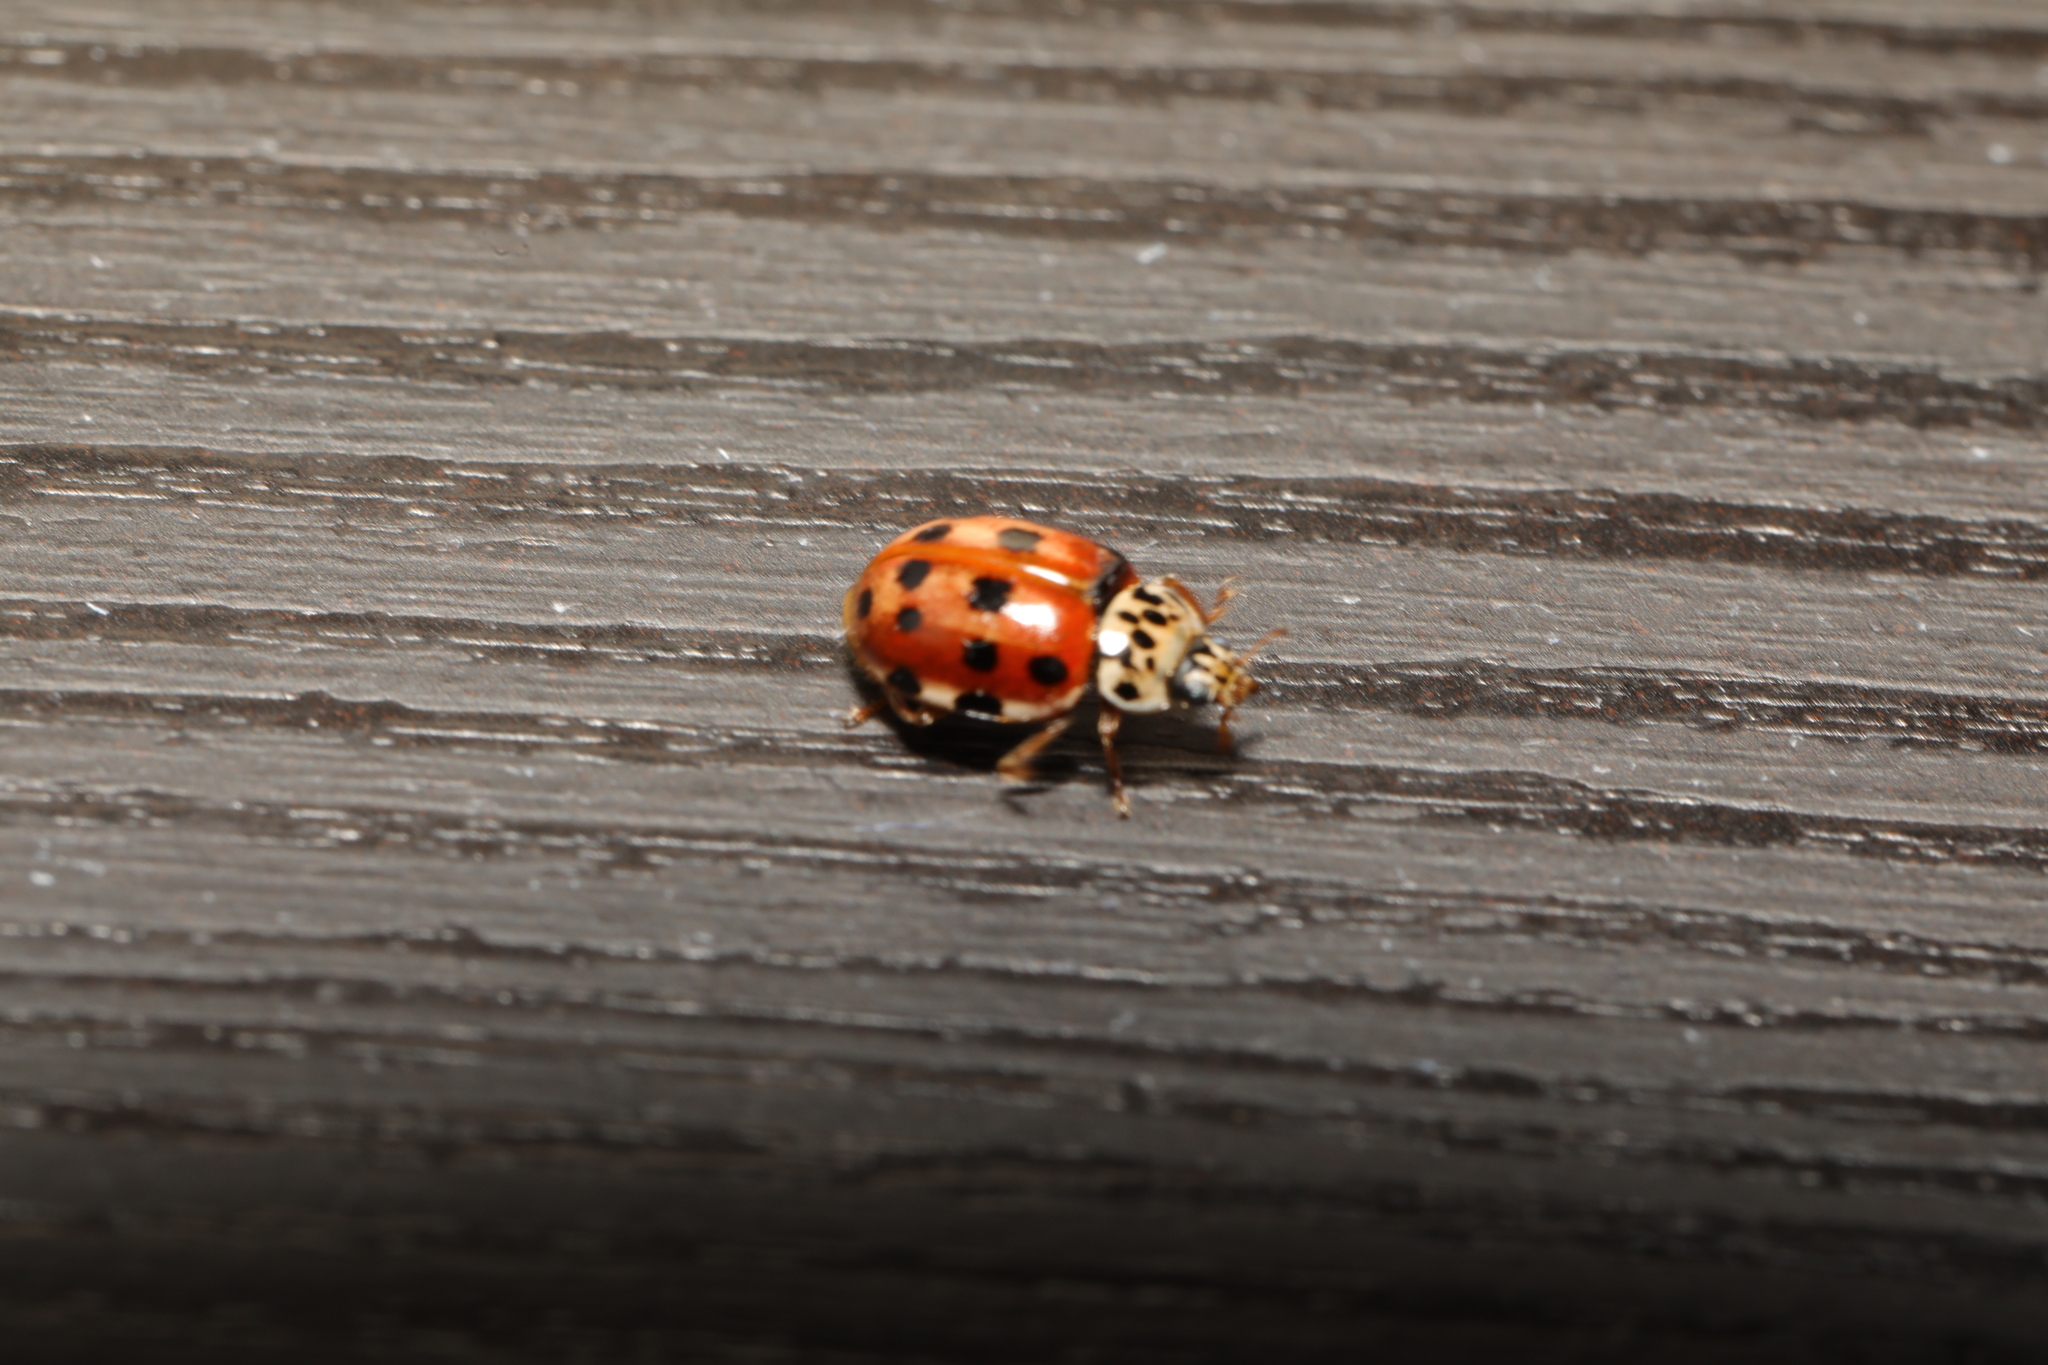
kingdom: Animalia
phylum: Arthropoda
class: Insecta
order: Coleoptera
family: Coccinellidae
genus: Harmonia
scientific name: Harmonia quadripunctata
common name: Cream-streaked ladybird
